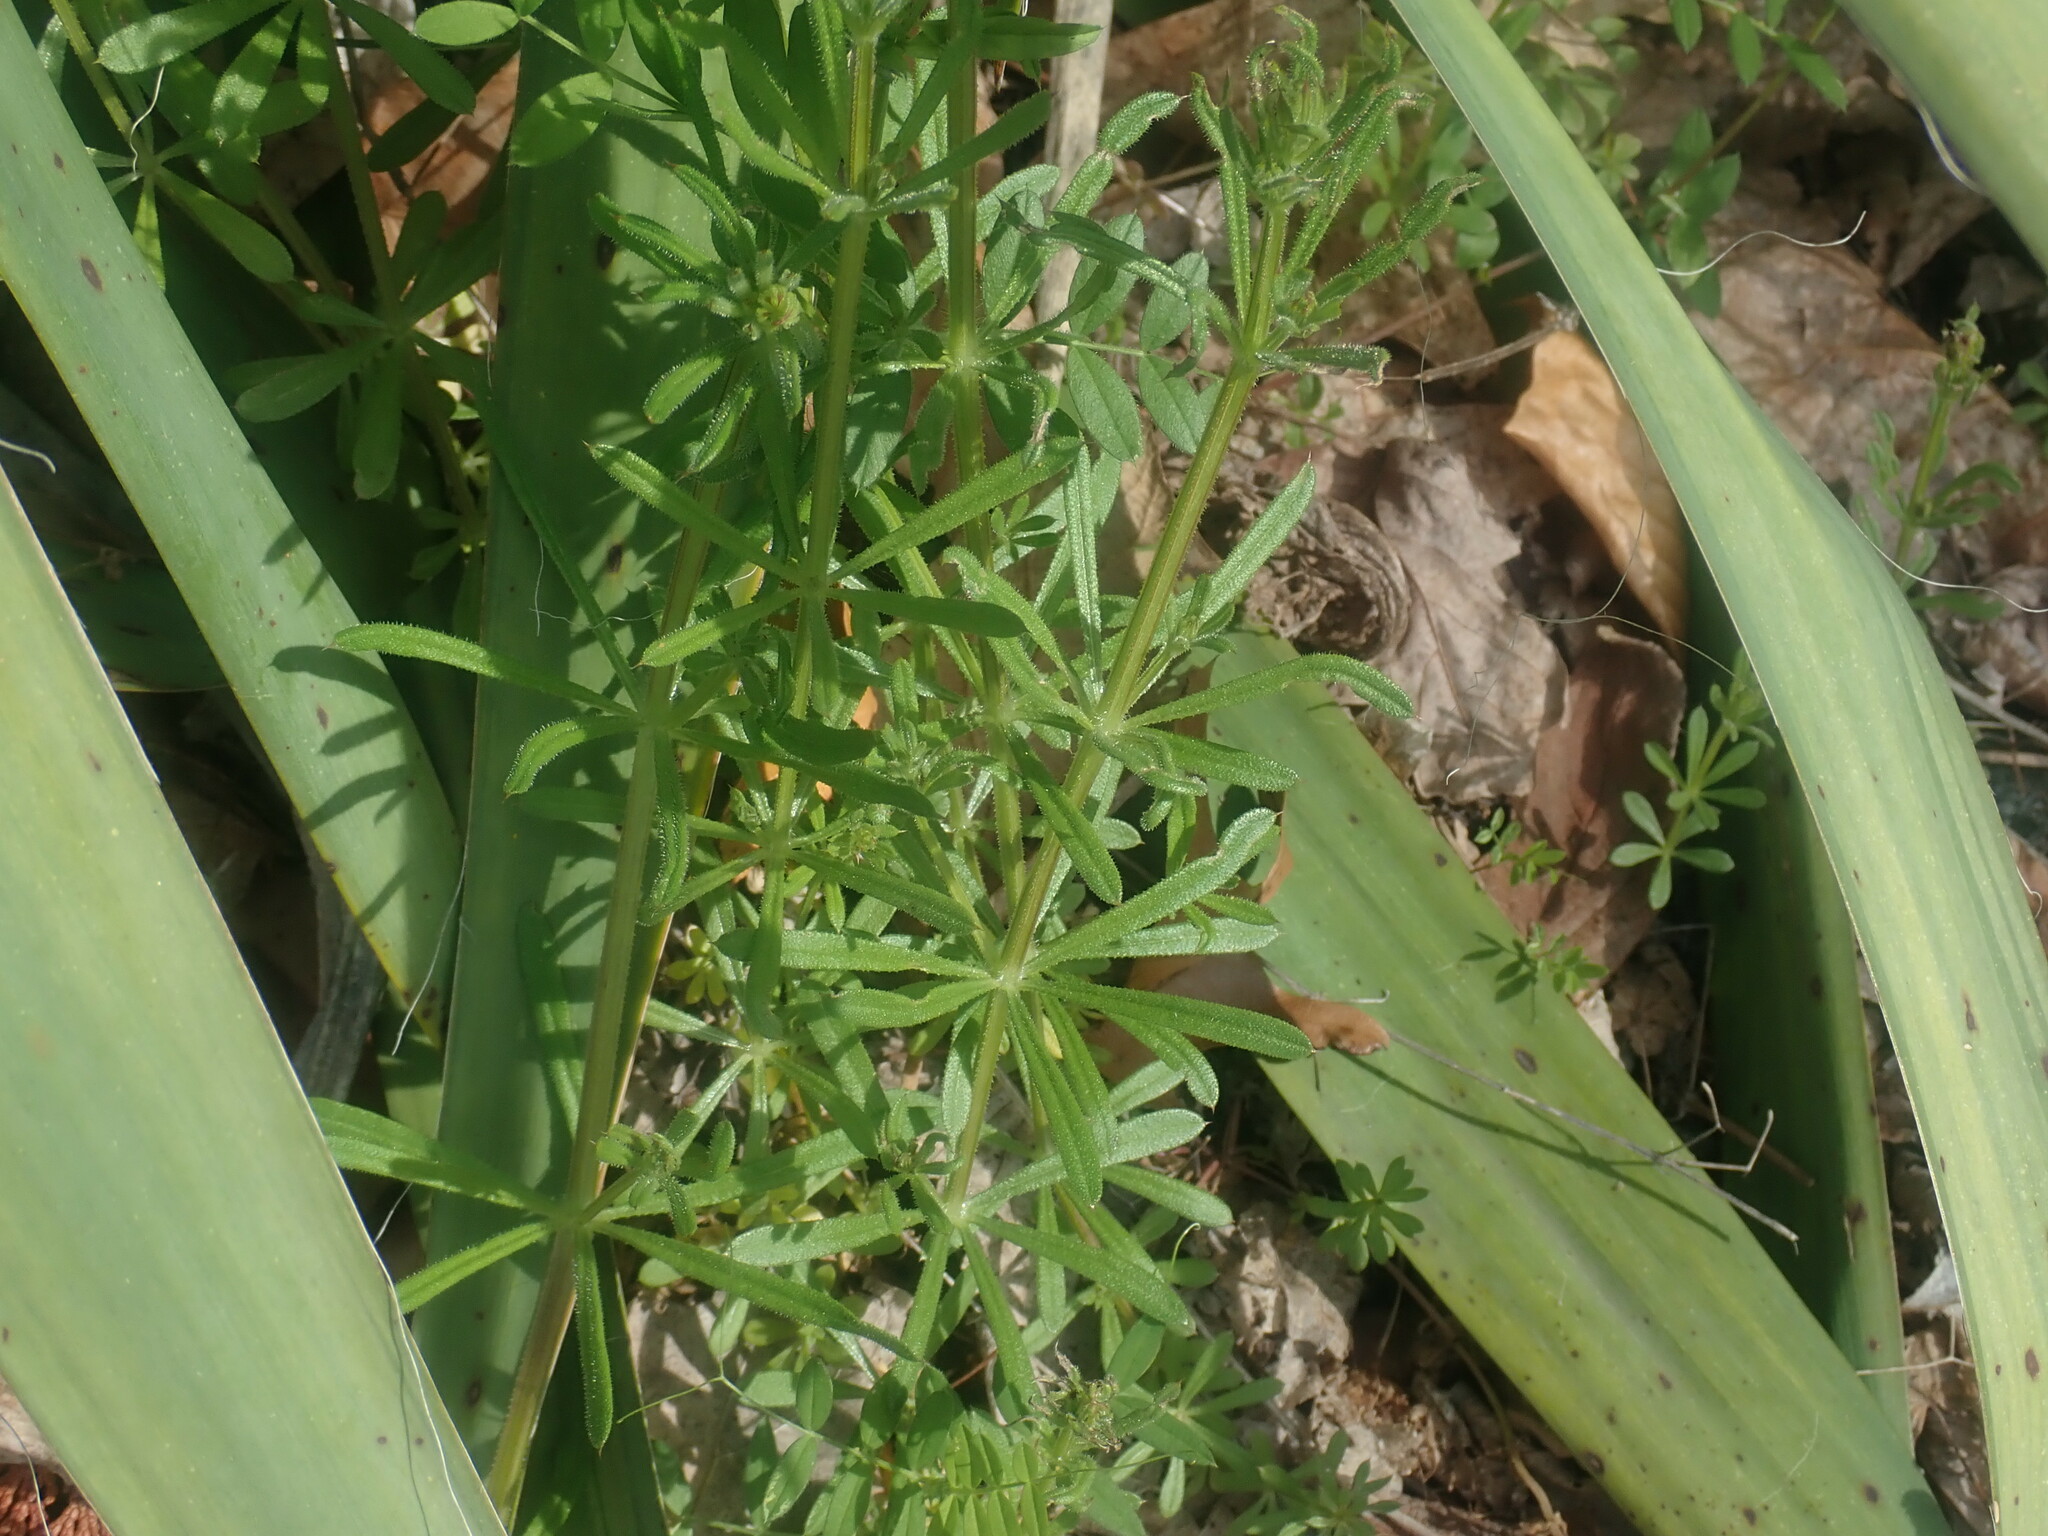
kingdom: Plantae
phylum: Tracheophyta
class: Magnoliopsida
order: Gentianales
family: Rubiaceae
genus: Galium
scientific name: Galium aparine
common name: Cleavers
